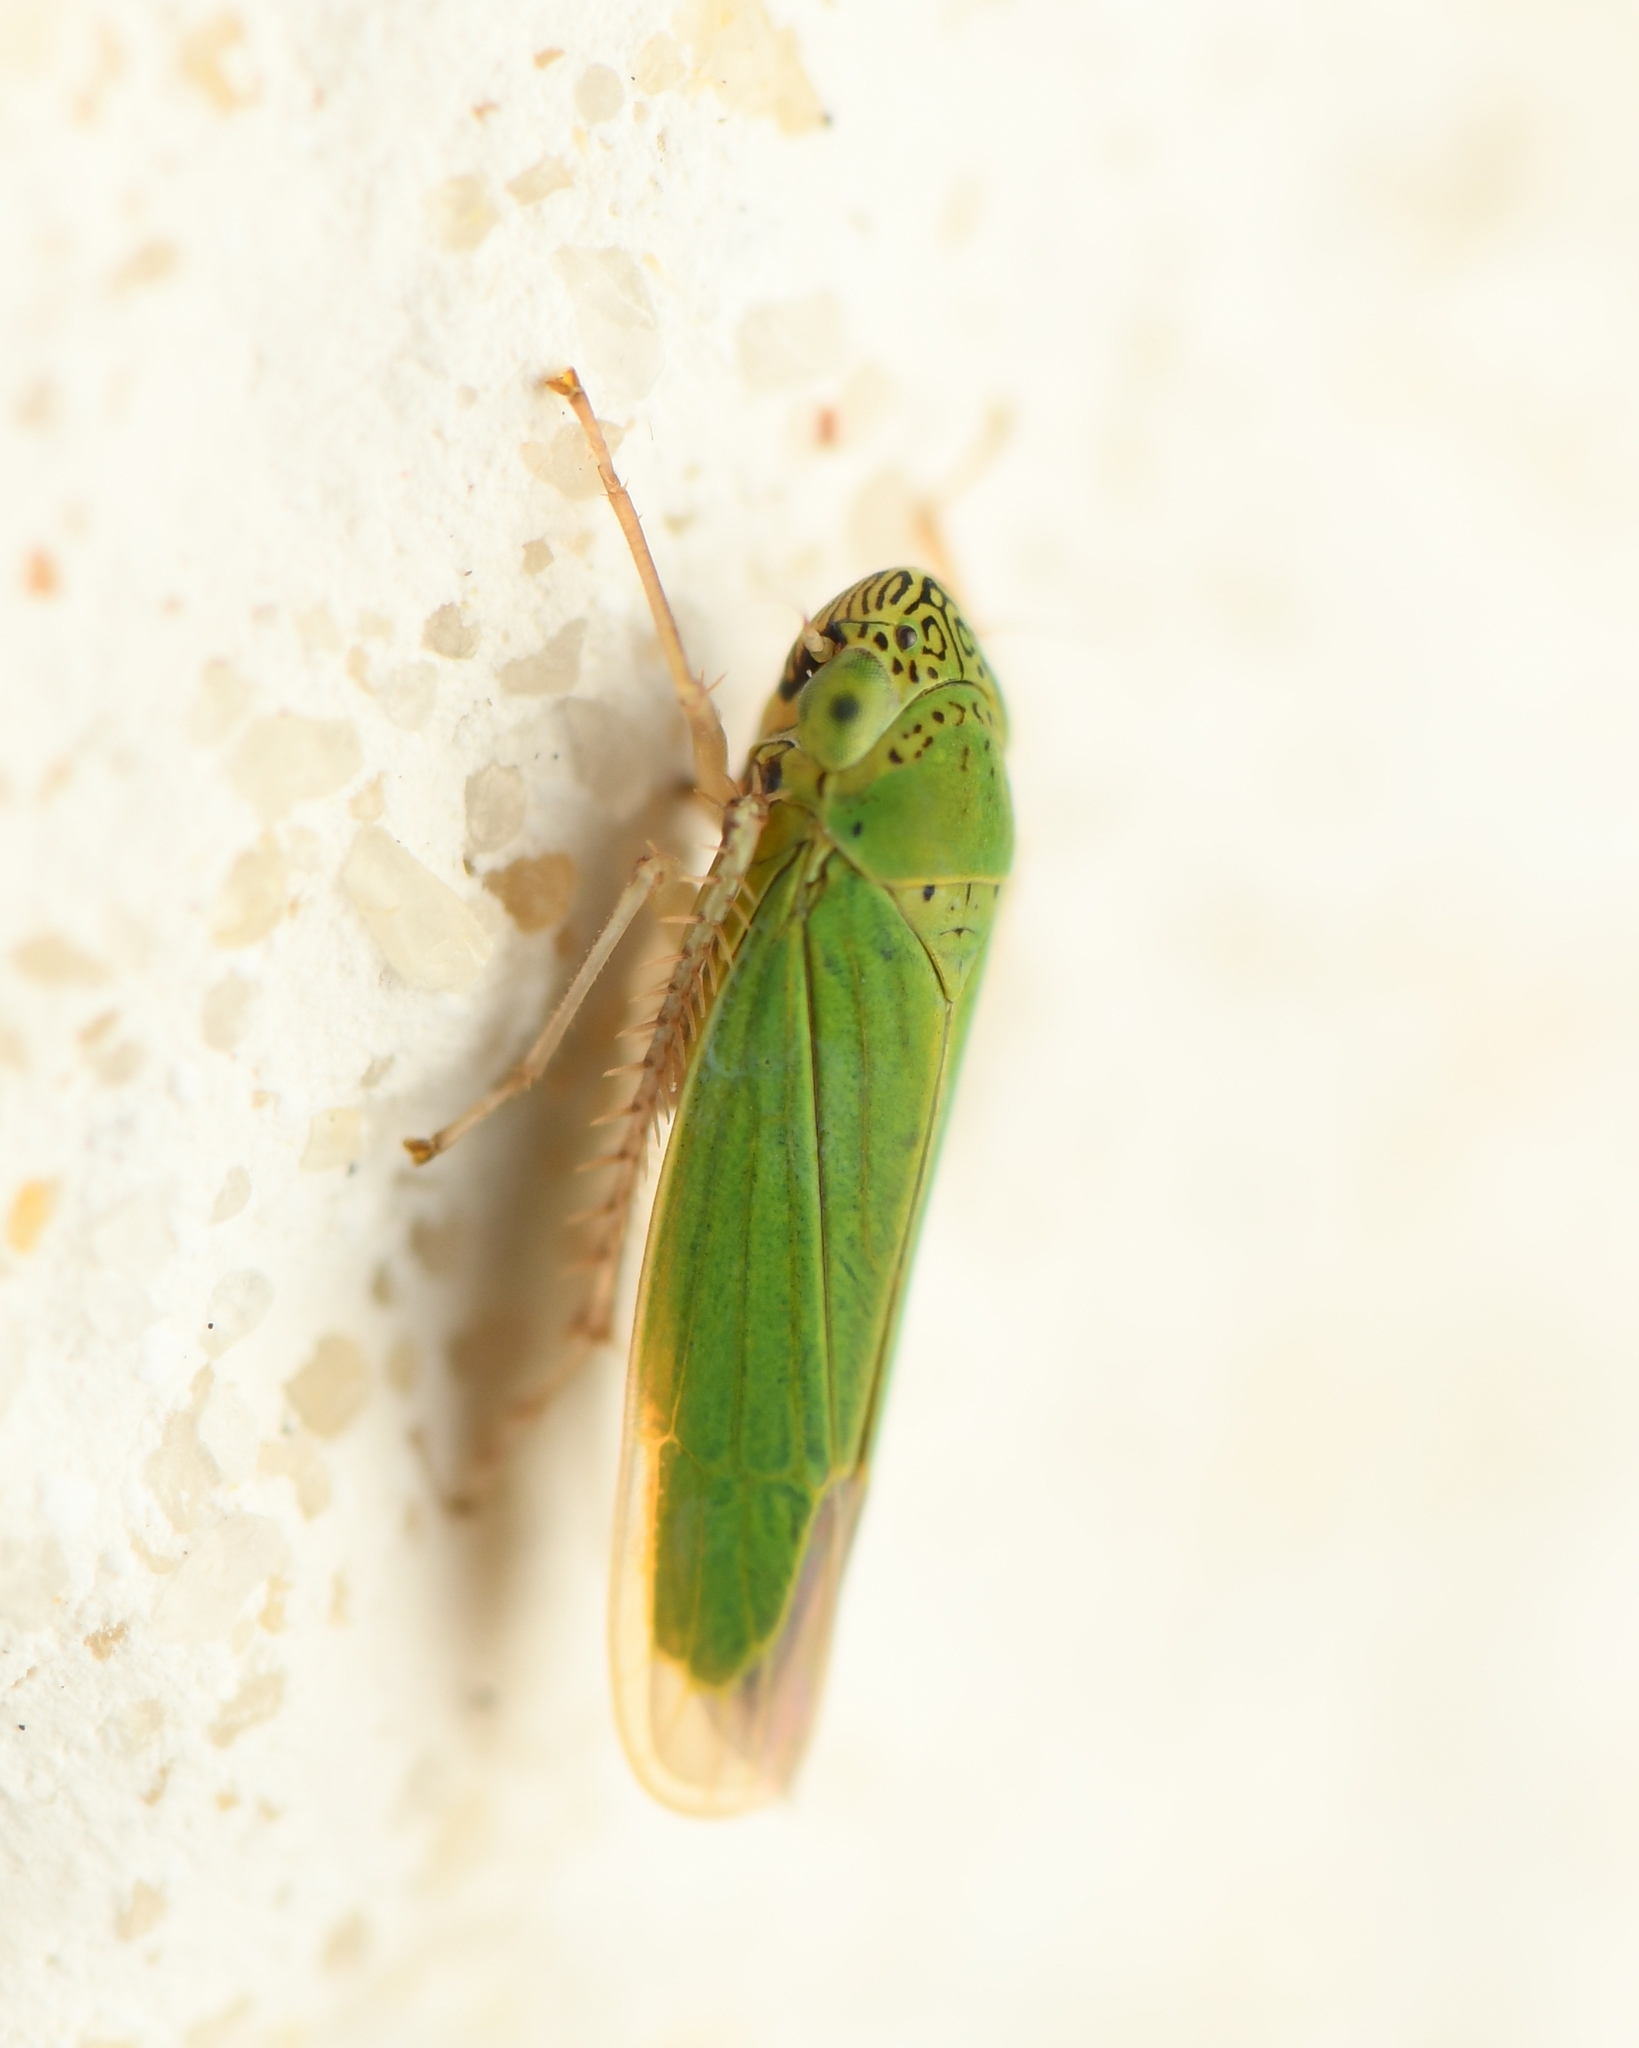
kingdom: Animalia
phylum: Arthropoda
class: Insecta
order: Hemiptera
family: Cicadellidae
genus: Hortensia
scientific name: Hortensia similis
